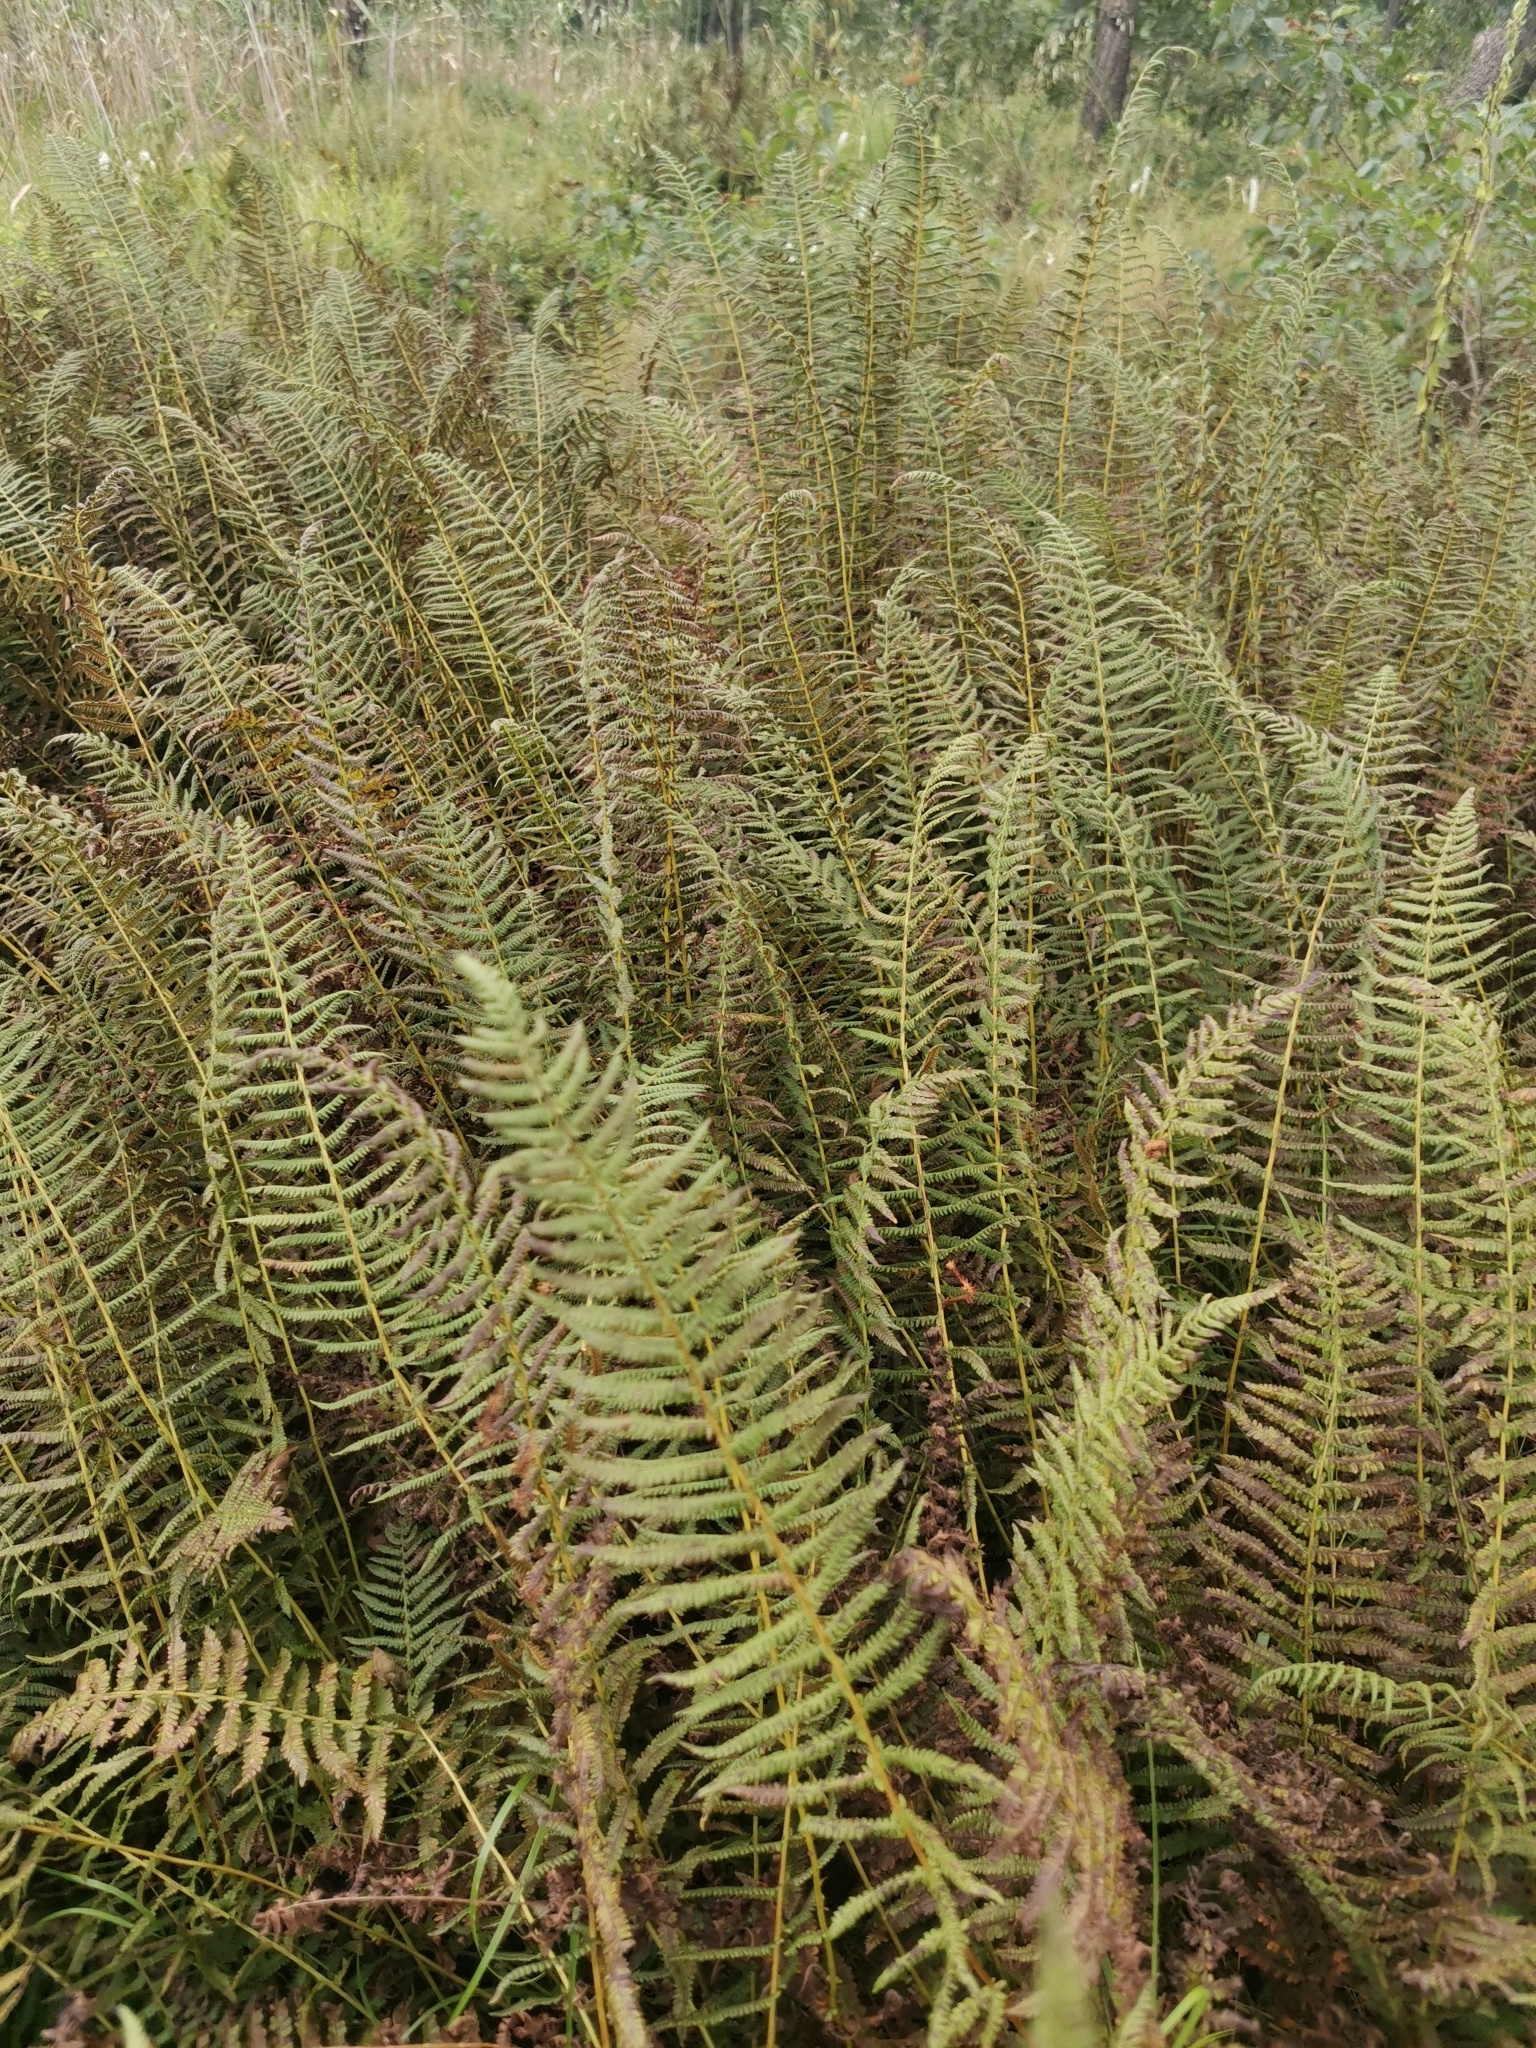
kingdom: Plantae
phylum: Tracheophyta
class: Polypodiopsida
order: Polypodiales
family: Thelypteridaceae
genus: Thelypteris
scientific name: Thelypteris palustris
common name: Marsh fern
